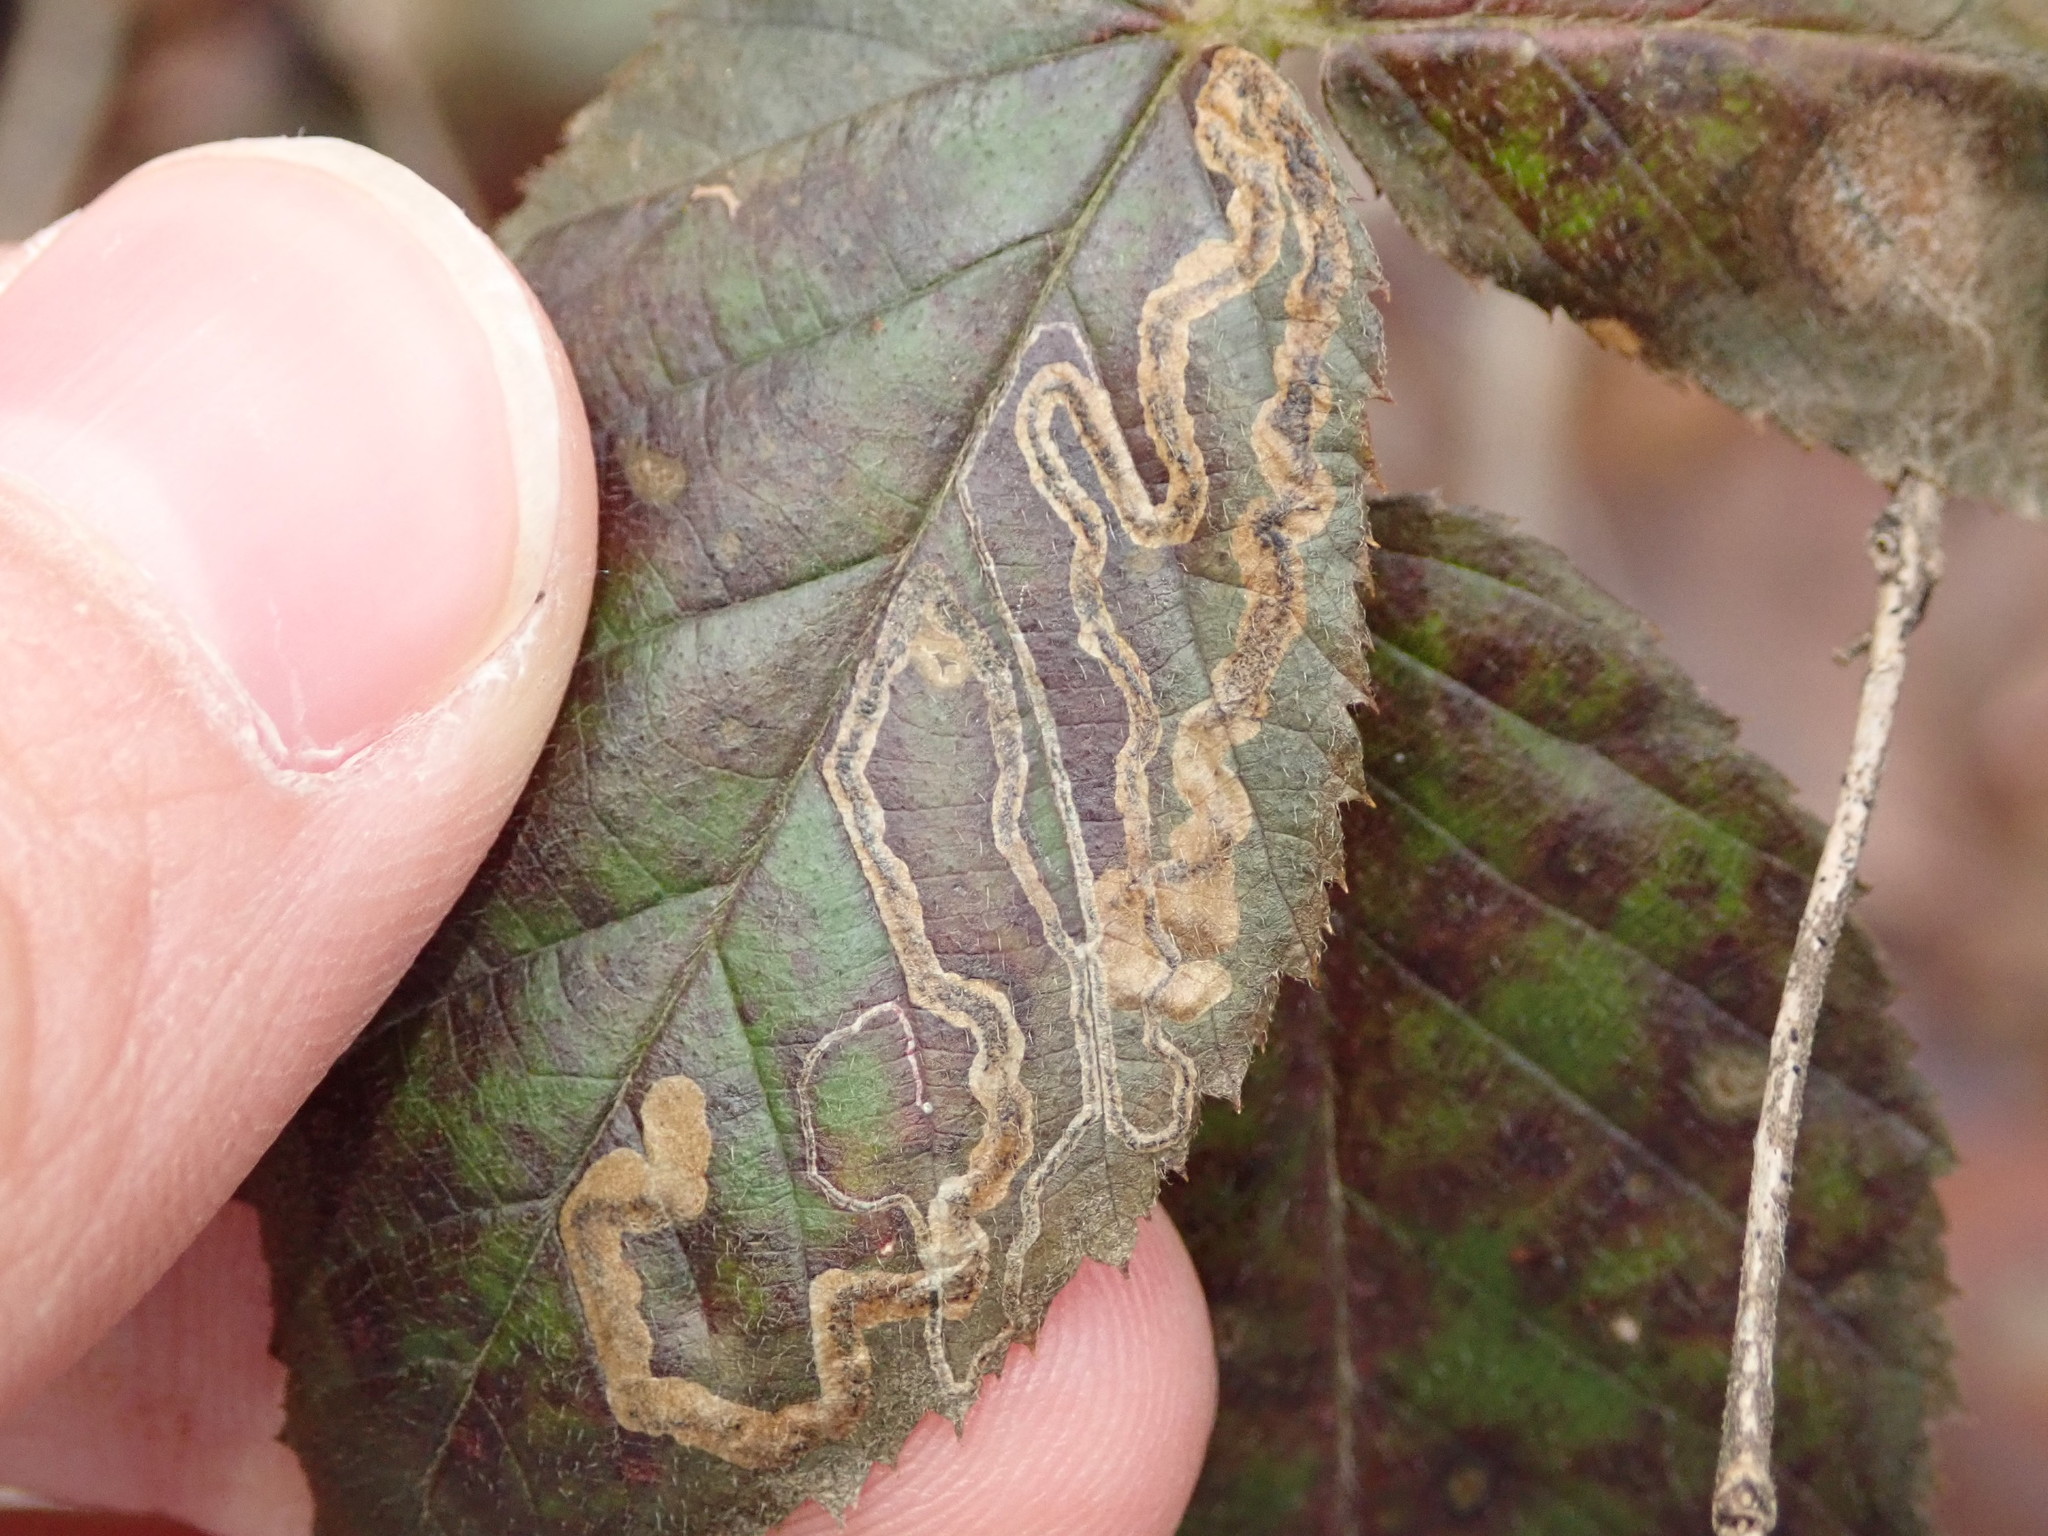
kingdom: Animalia
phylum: Arthropoda
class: Insecta
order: Lepidoptera
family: Nepticulidae
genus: Stigmella
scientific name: Stigmella villosella
